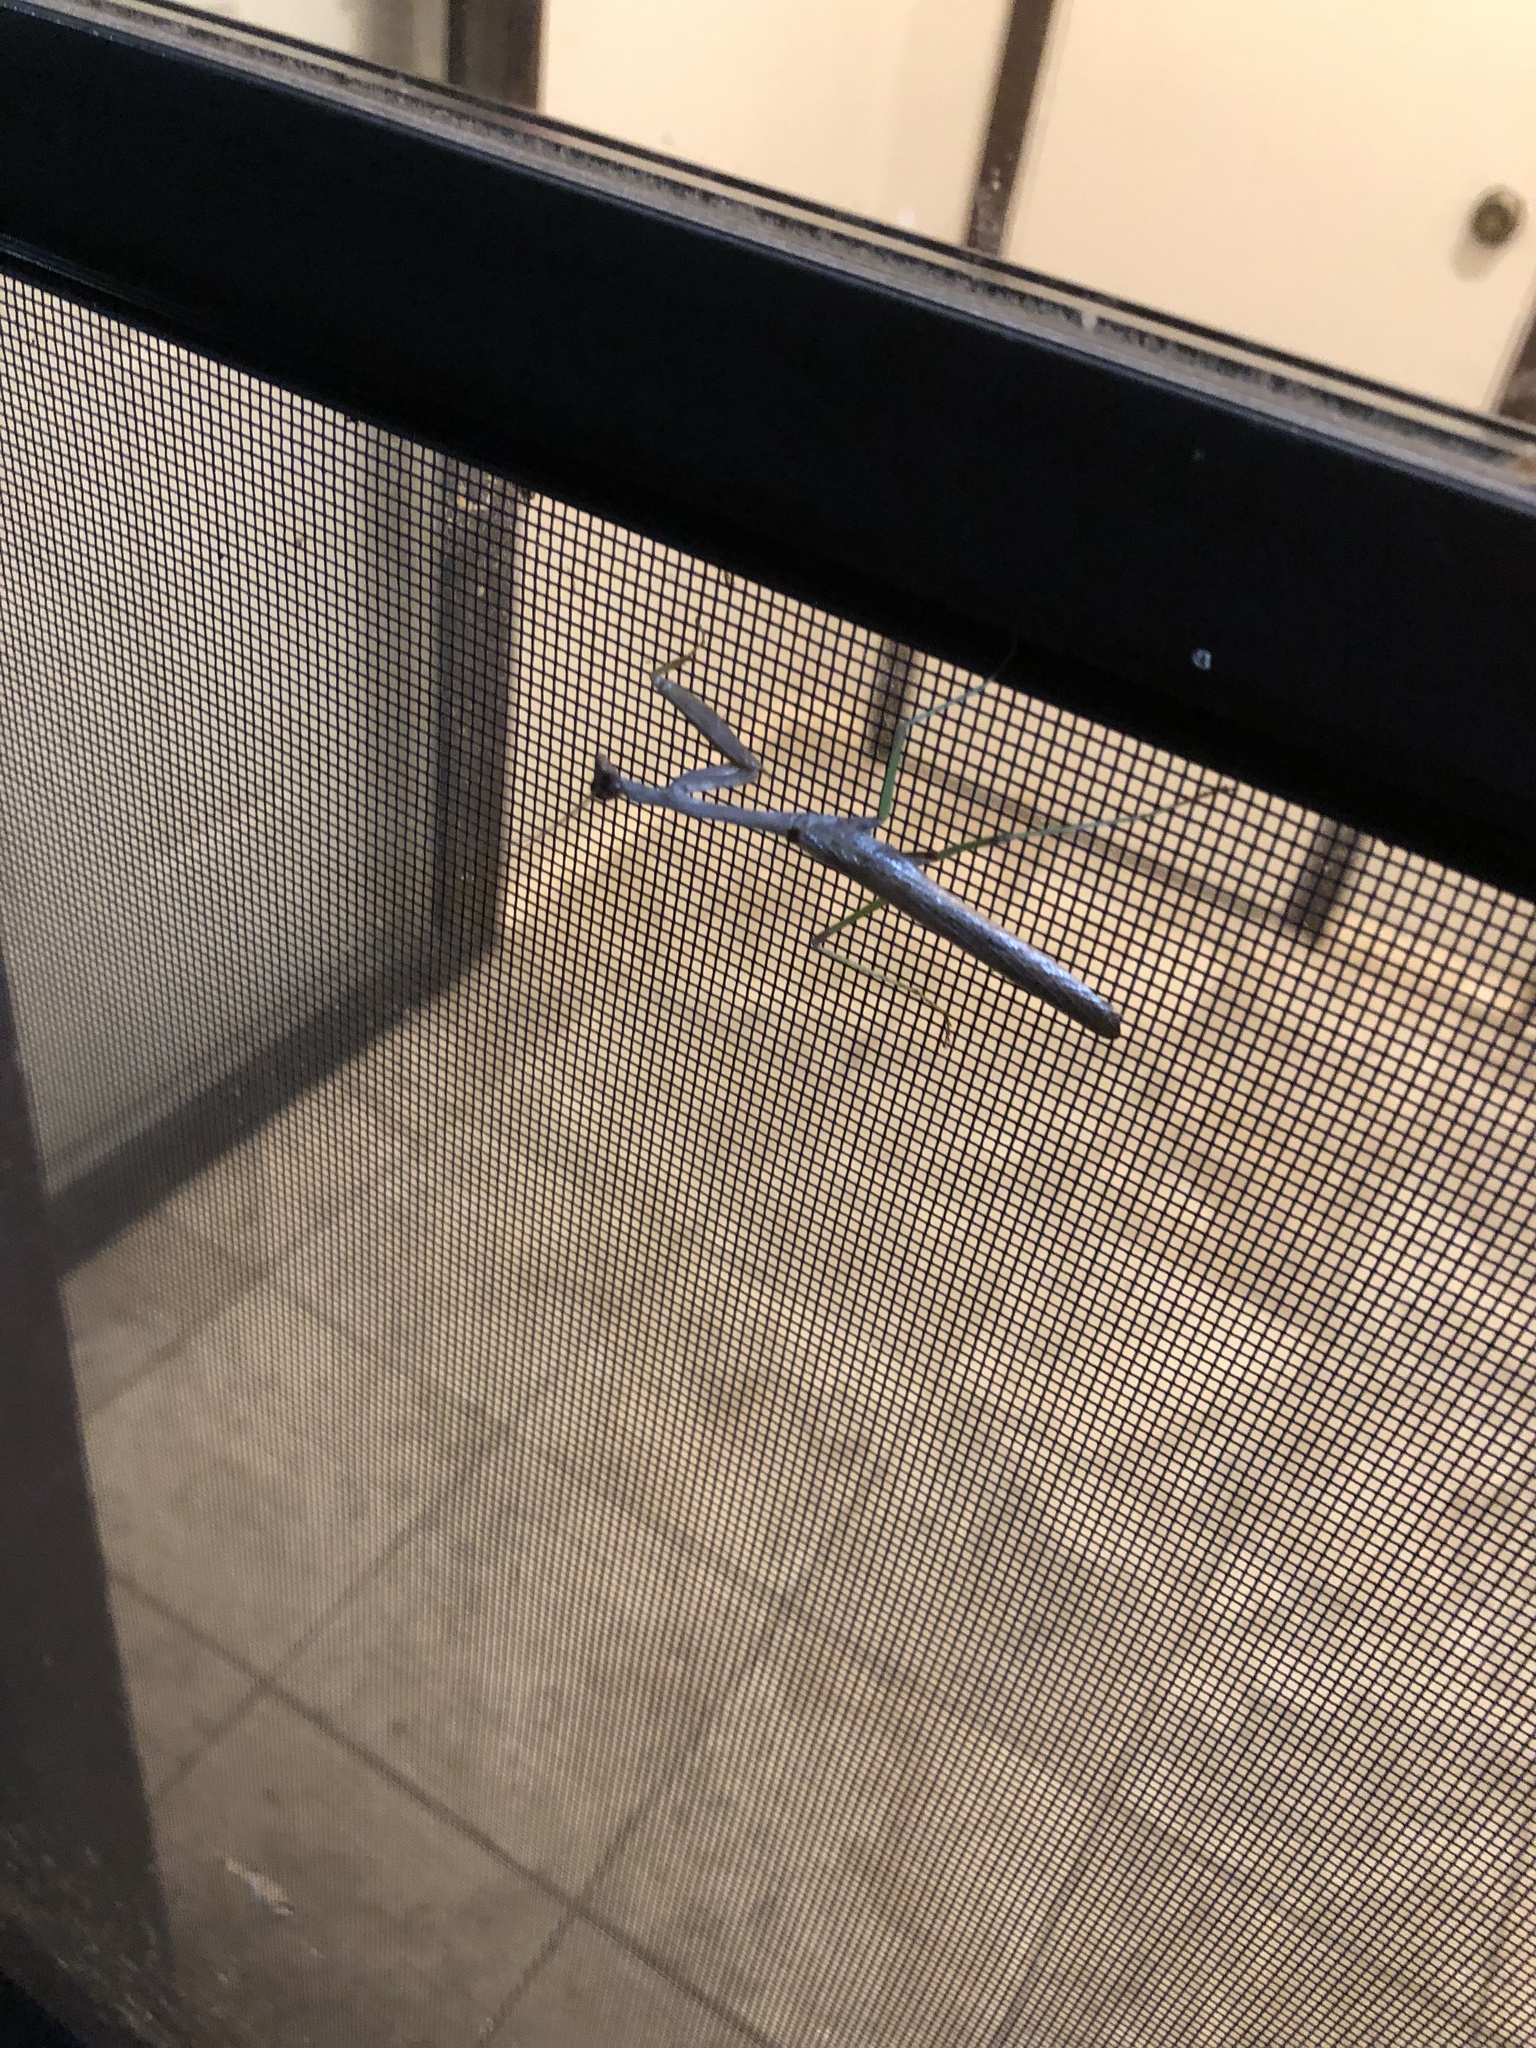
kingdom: Animalia
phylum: Arthropoda
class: Insecta
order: Mantodea
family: Mantidae
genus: Stagmomantis
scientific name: Stagmomantis carolina
